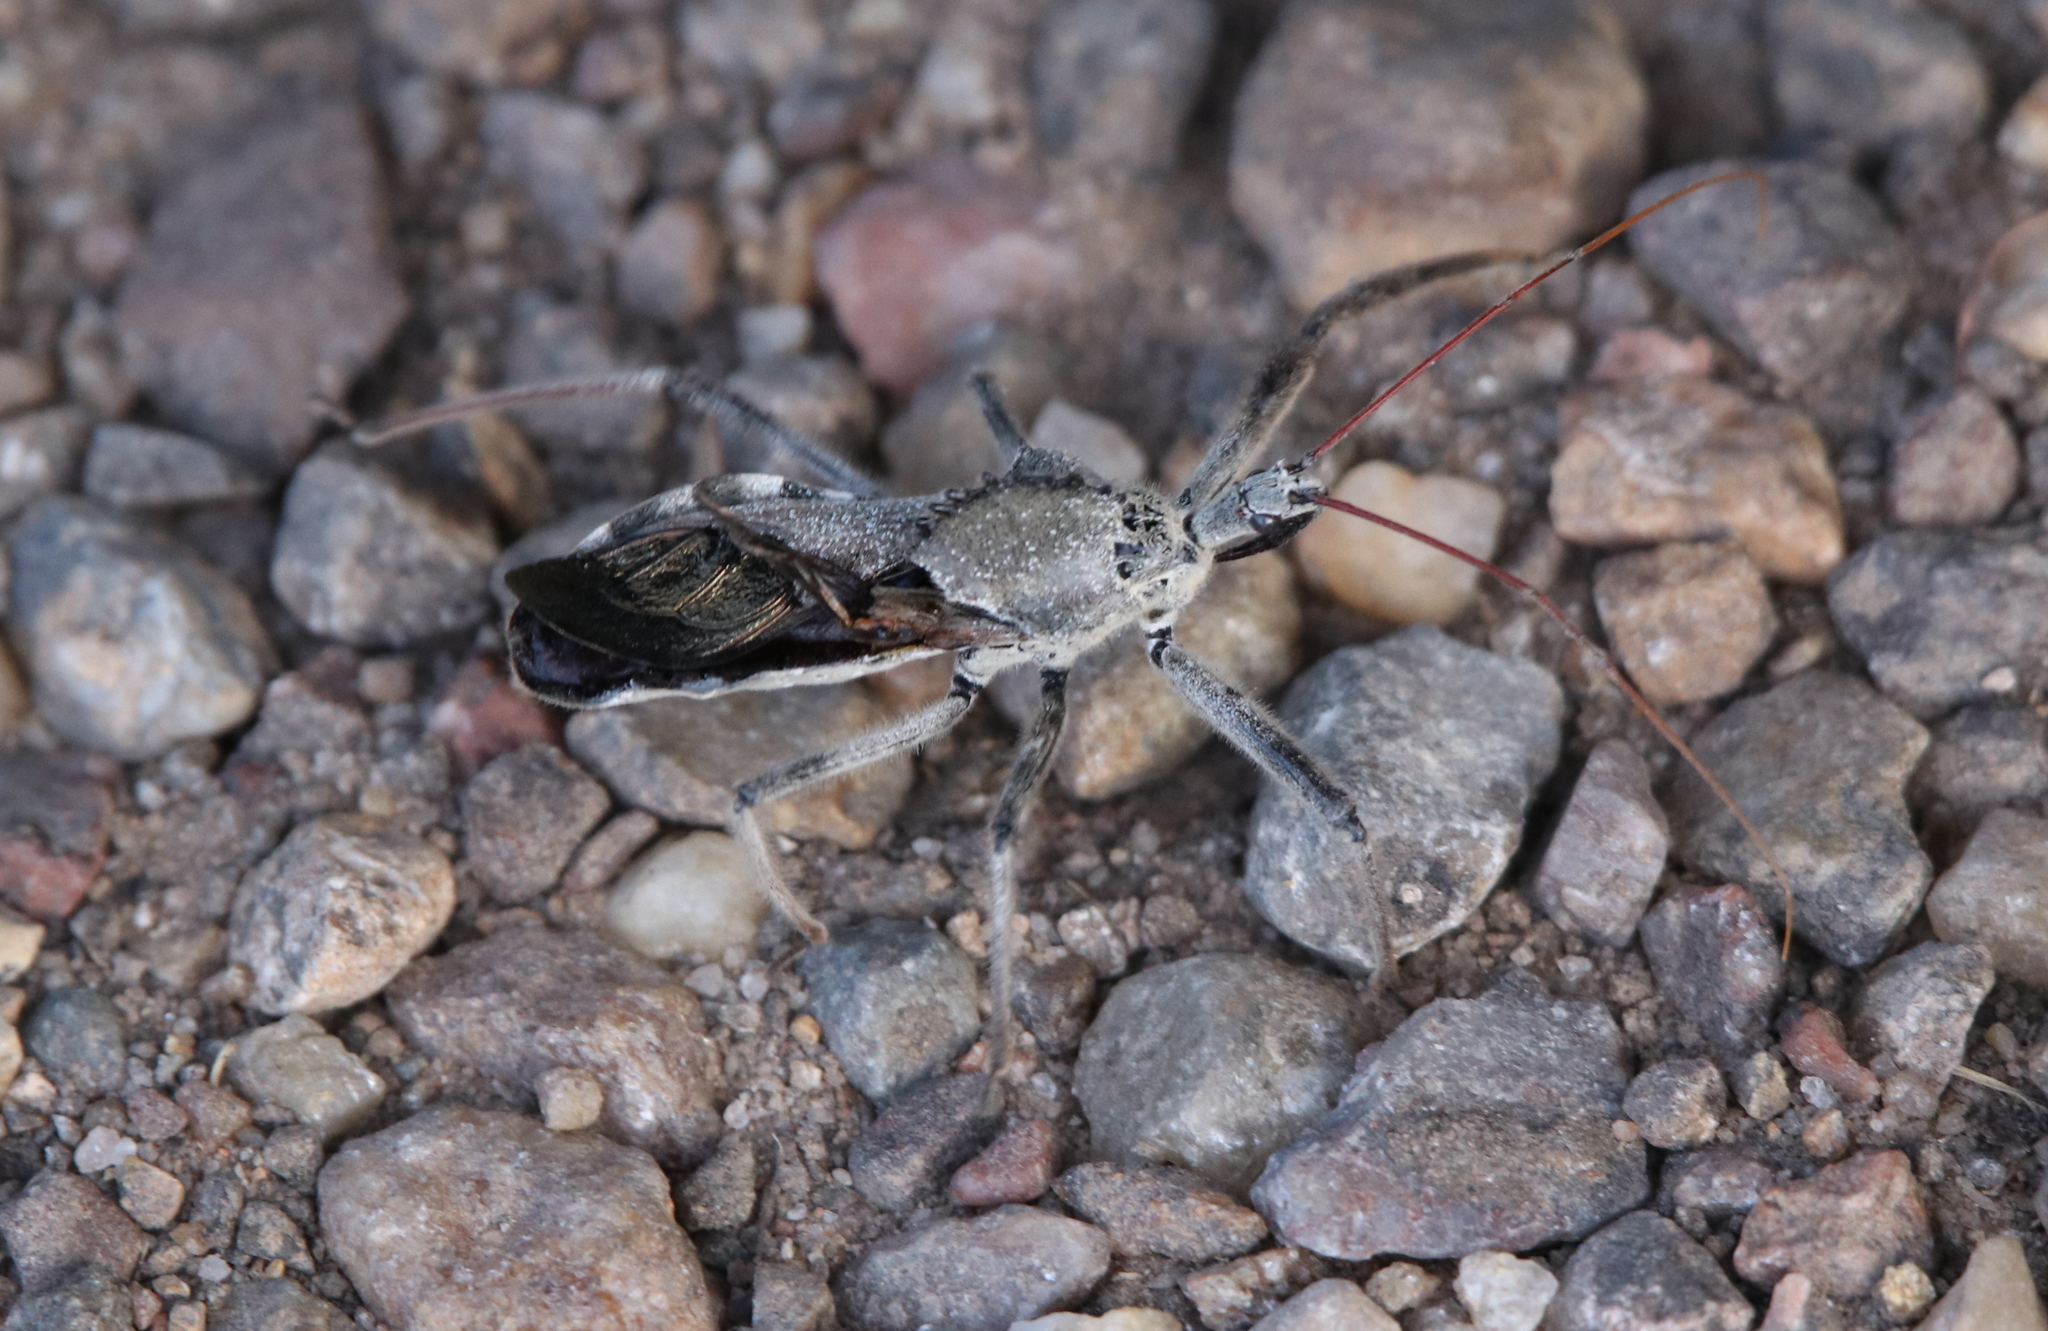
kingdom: Animalia
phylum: Arthropoda
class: Insecta
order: Hemiptera
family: Reduviidae
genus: Arilus
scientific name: Arilus cristatus
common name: North american wheel bug
